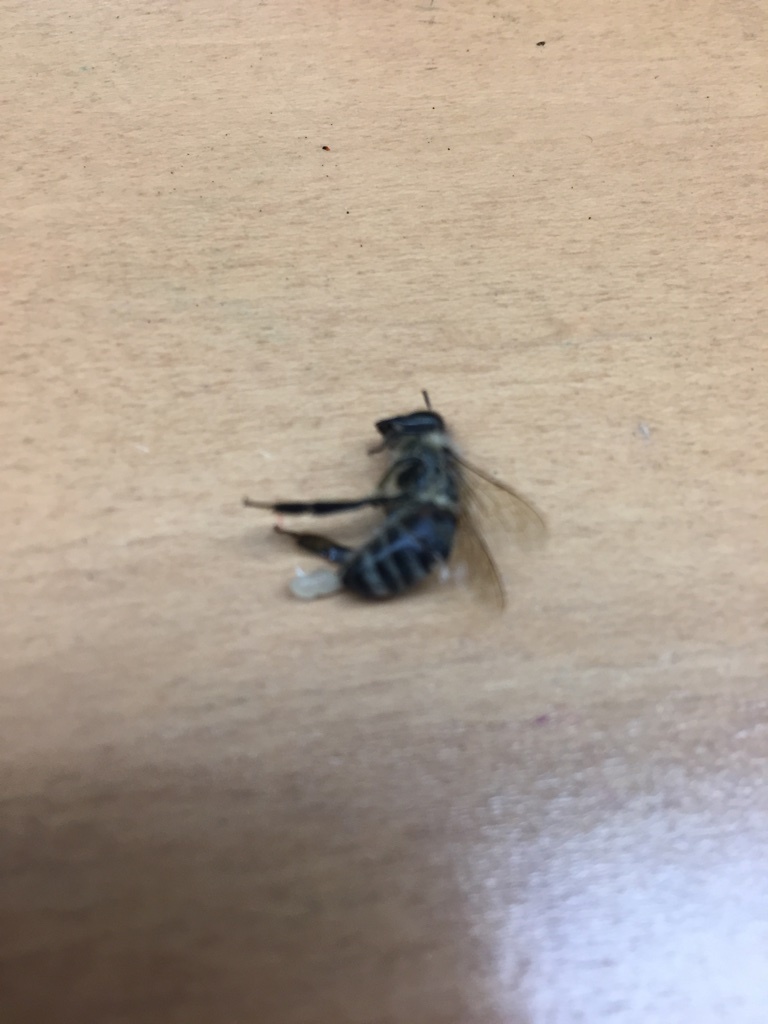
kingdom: Animalia
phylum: Arthropoda
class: Insecta
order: Hymenoptera
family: Apidae
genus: Apis
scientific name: Apis mellifera
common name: Honey bee
